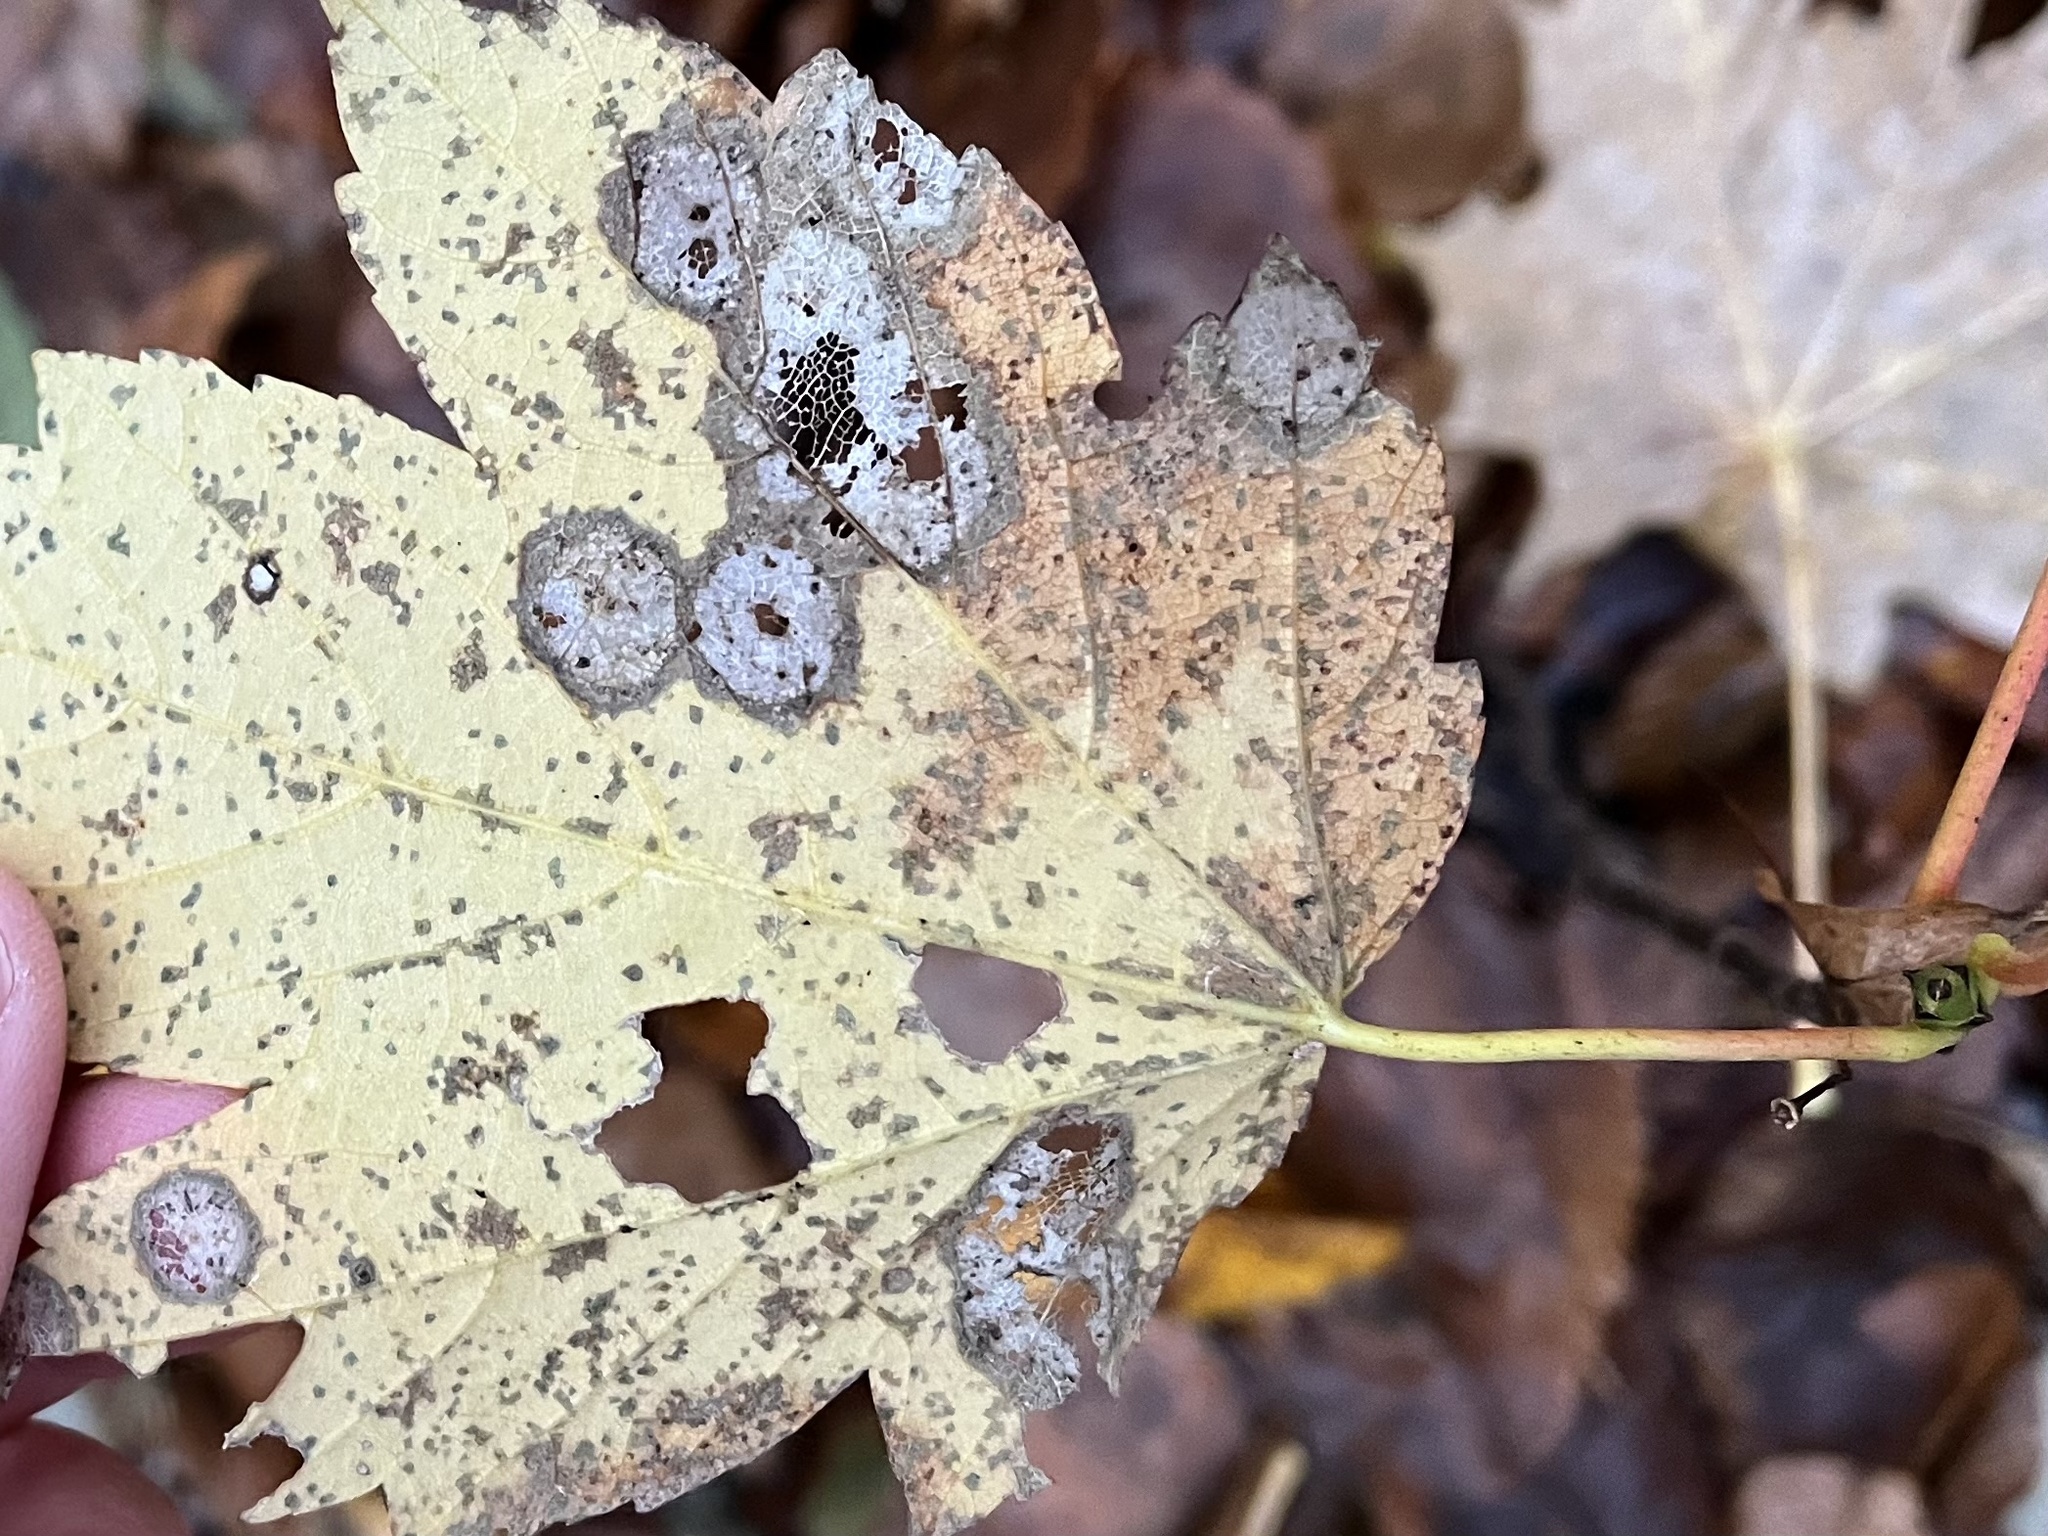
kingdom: Fungi
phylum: Ascomycota
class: Leotiomycetes
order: Rhytismatales
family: Rhytismataceae
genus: Rhytisma
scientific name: Rhytisma acerinum
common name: European tar spot
